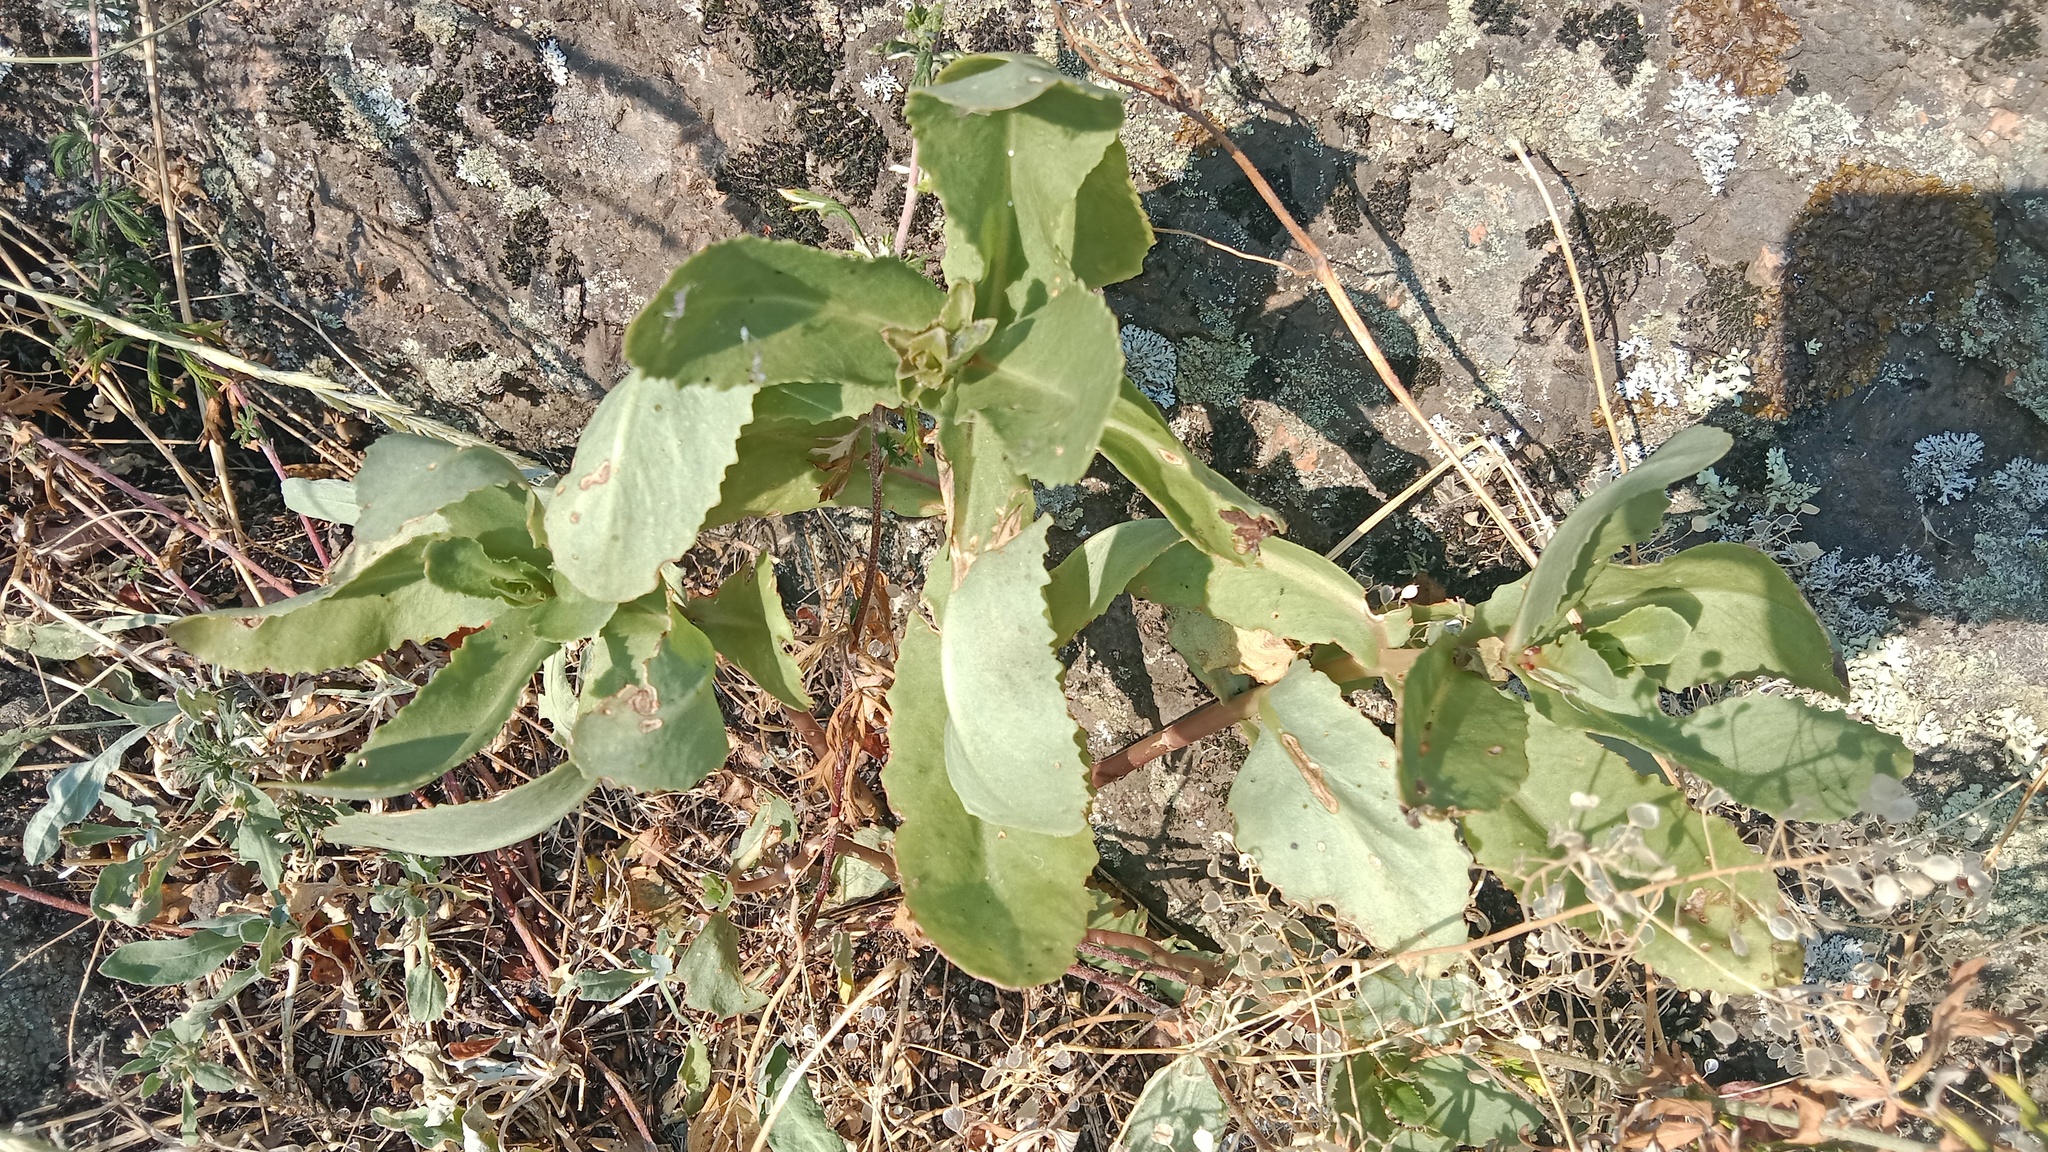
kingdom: Plantae
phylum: Tracheophyta
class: Magnoliopsida
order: Saxifragales
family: Crassulaceae
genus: Hylotelephium
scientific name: Hylotelephium maximum
